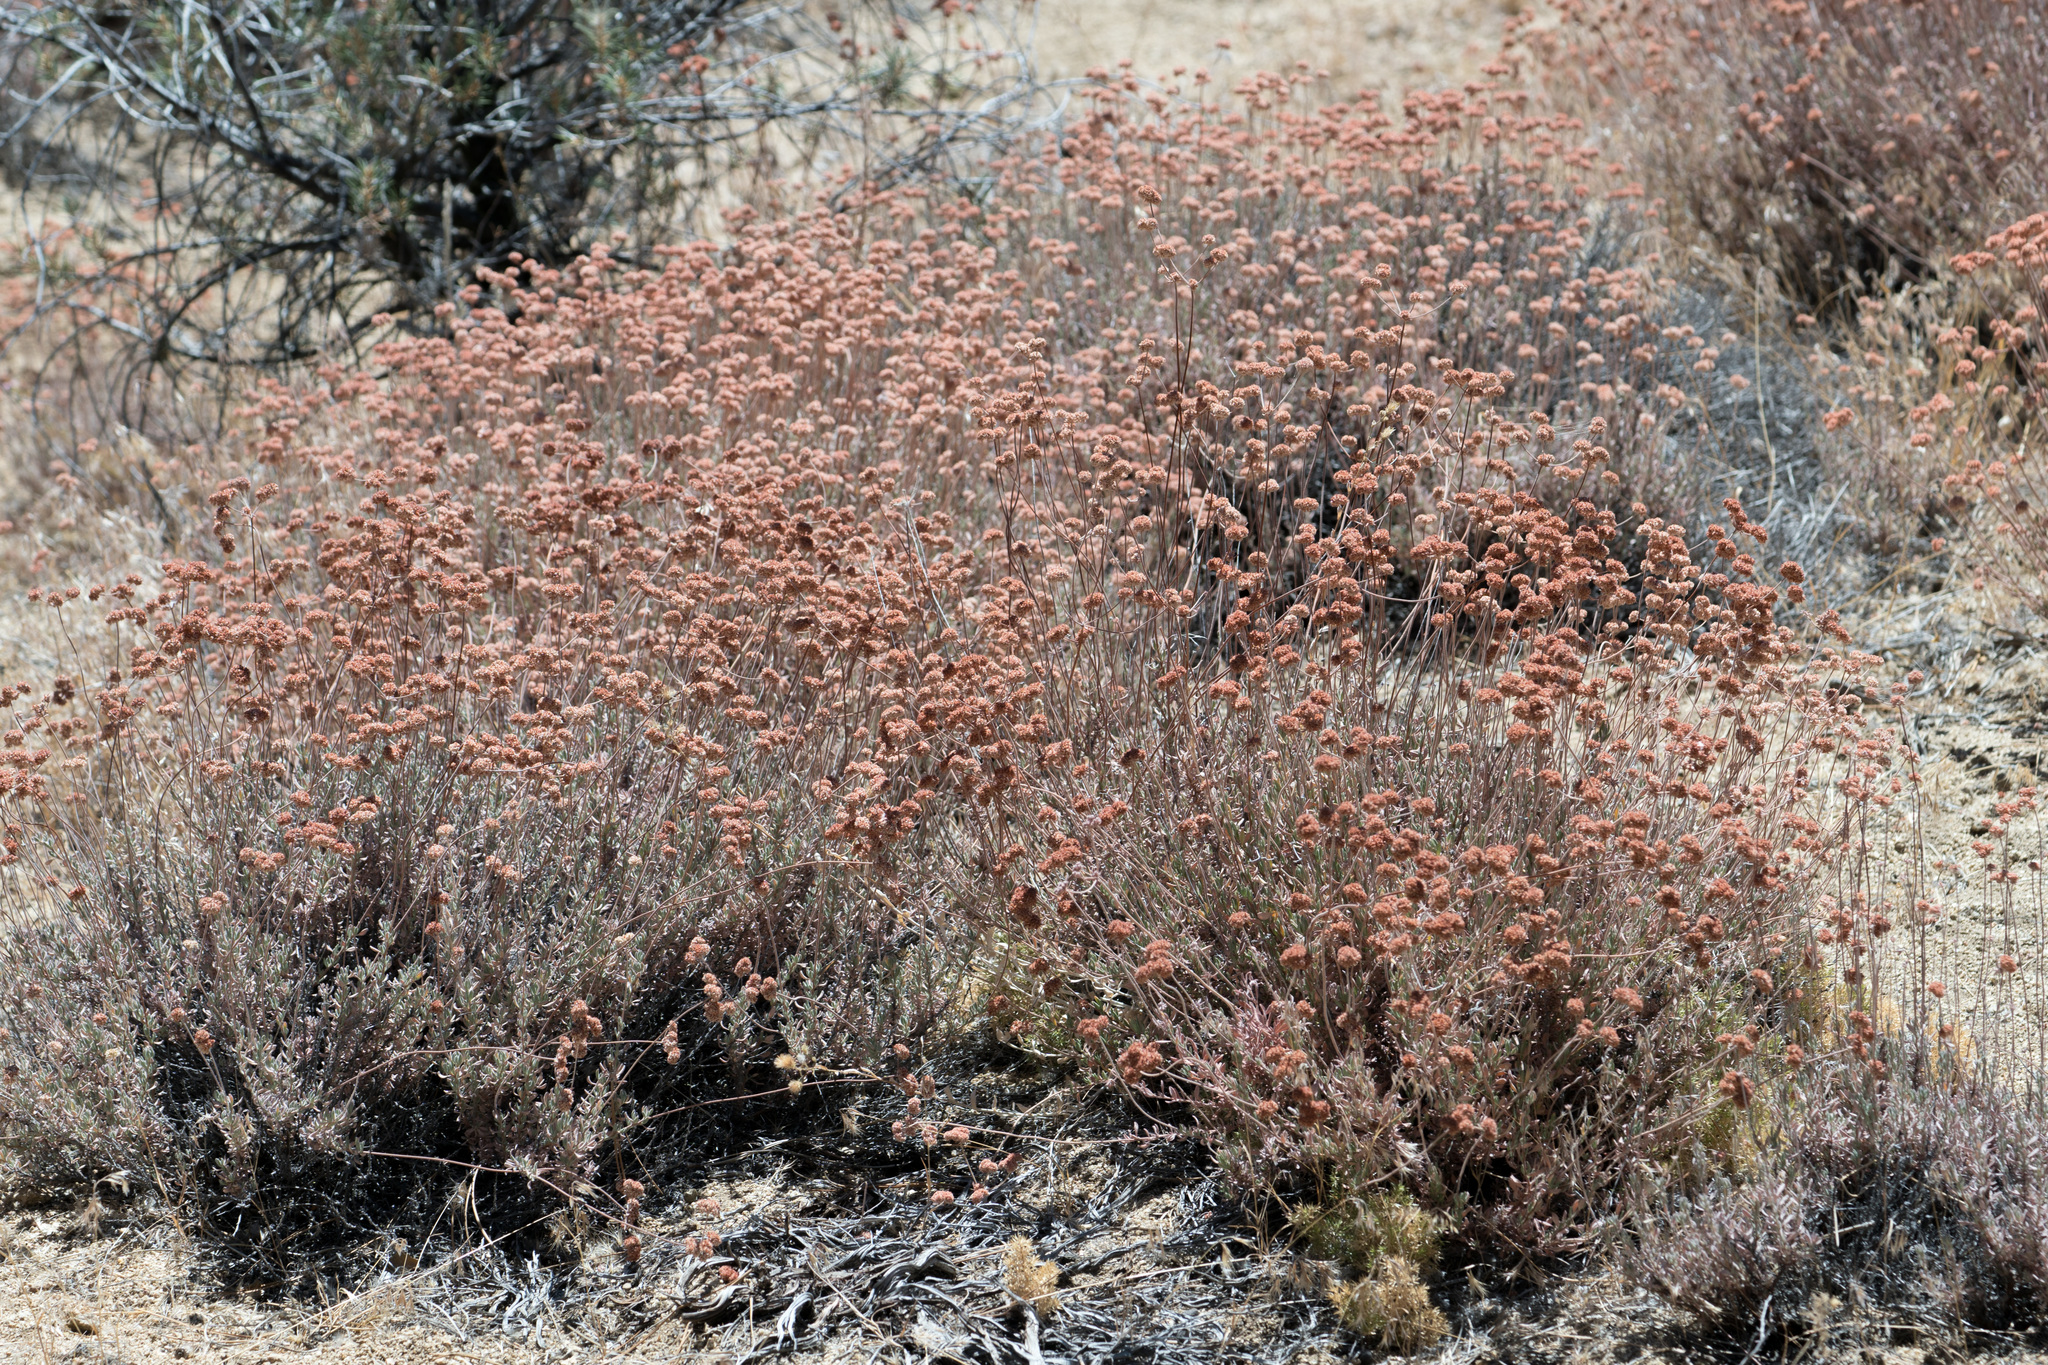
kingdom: Plantae
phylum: Tracheophyta
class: Magnoliopsida
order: Caryophyllales
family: Polygonaceae
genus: Eriogonum
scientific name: Eriogonum fasciculatum
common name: California wild buckwheat
